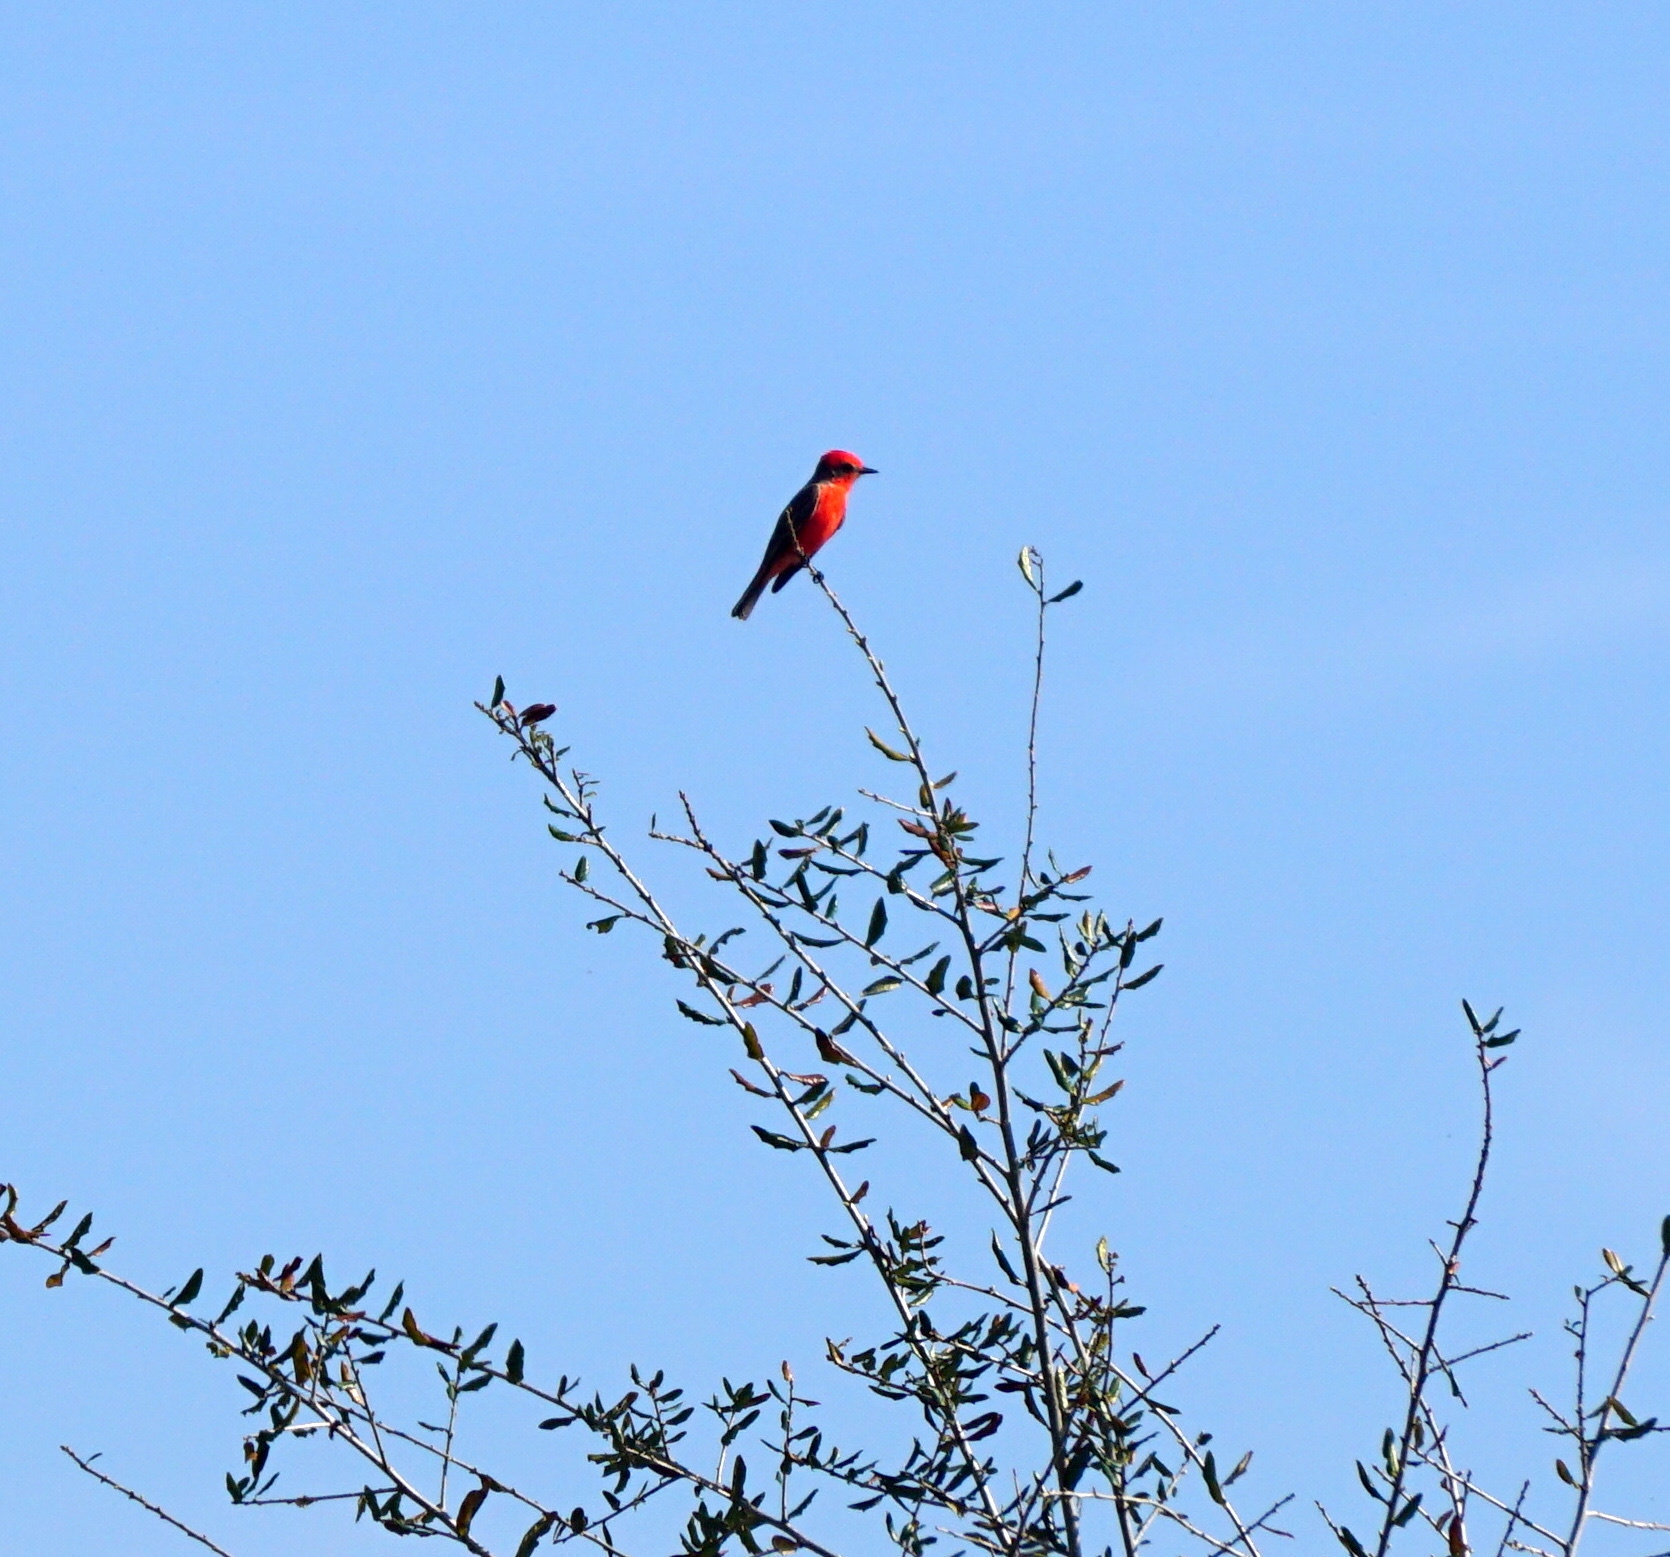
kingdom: Animalia
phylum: Chordata
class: Aves
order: Passeriformes
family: Tyrannidae
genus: Pyrocephalus
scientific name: Pyrocephalus rubinus
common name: Vermilion flycatcher
